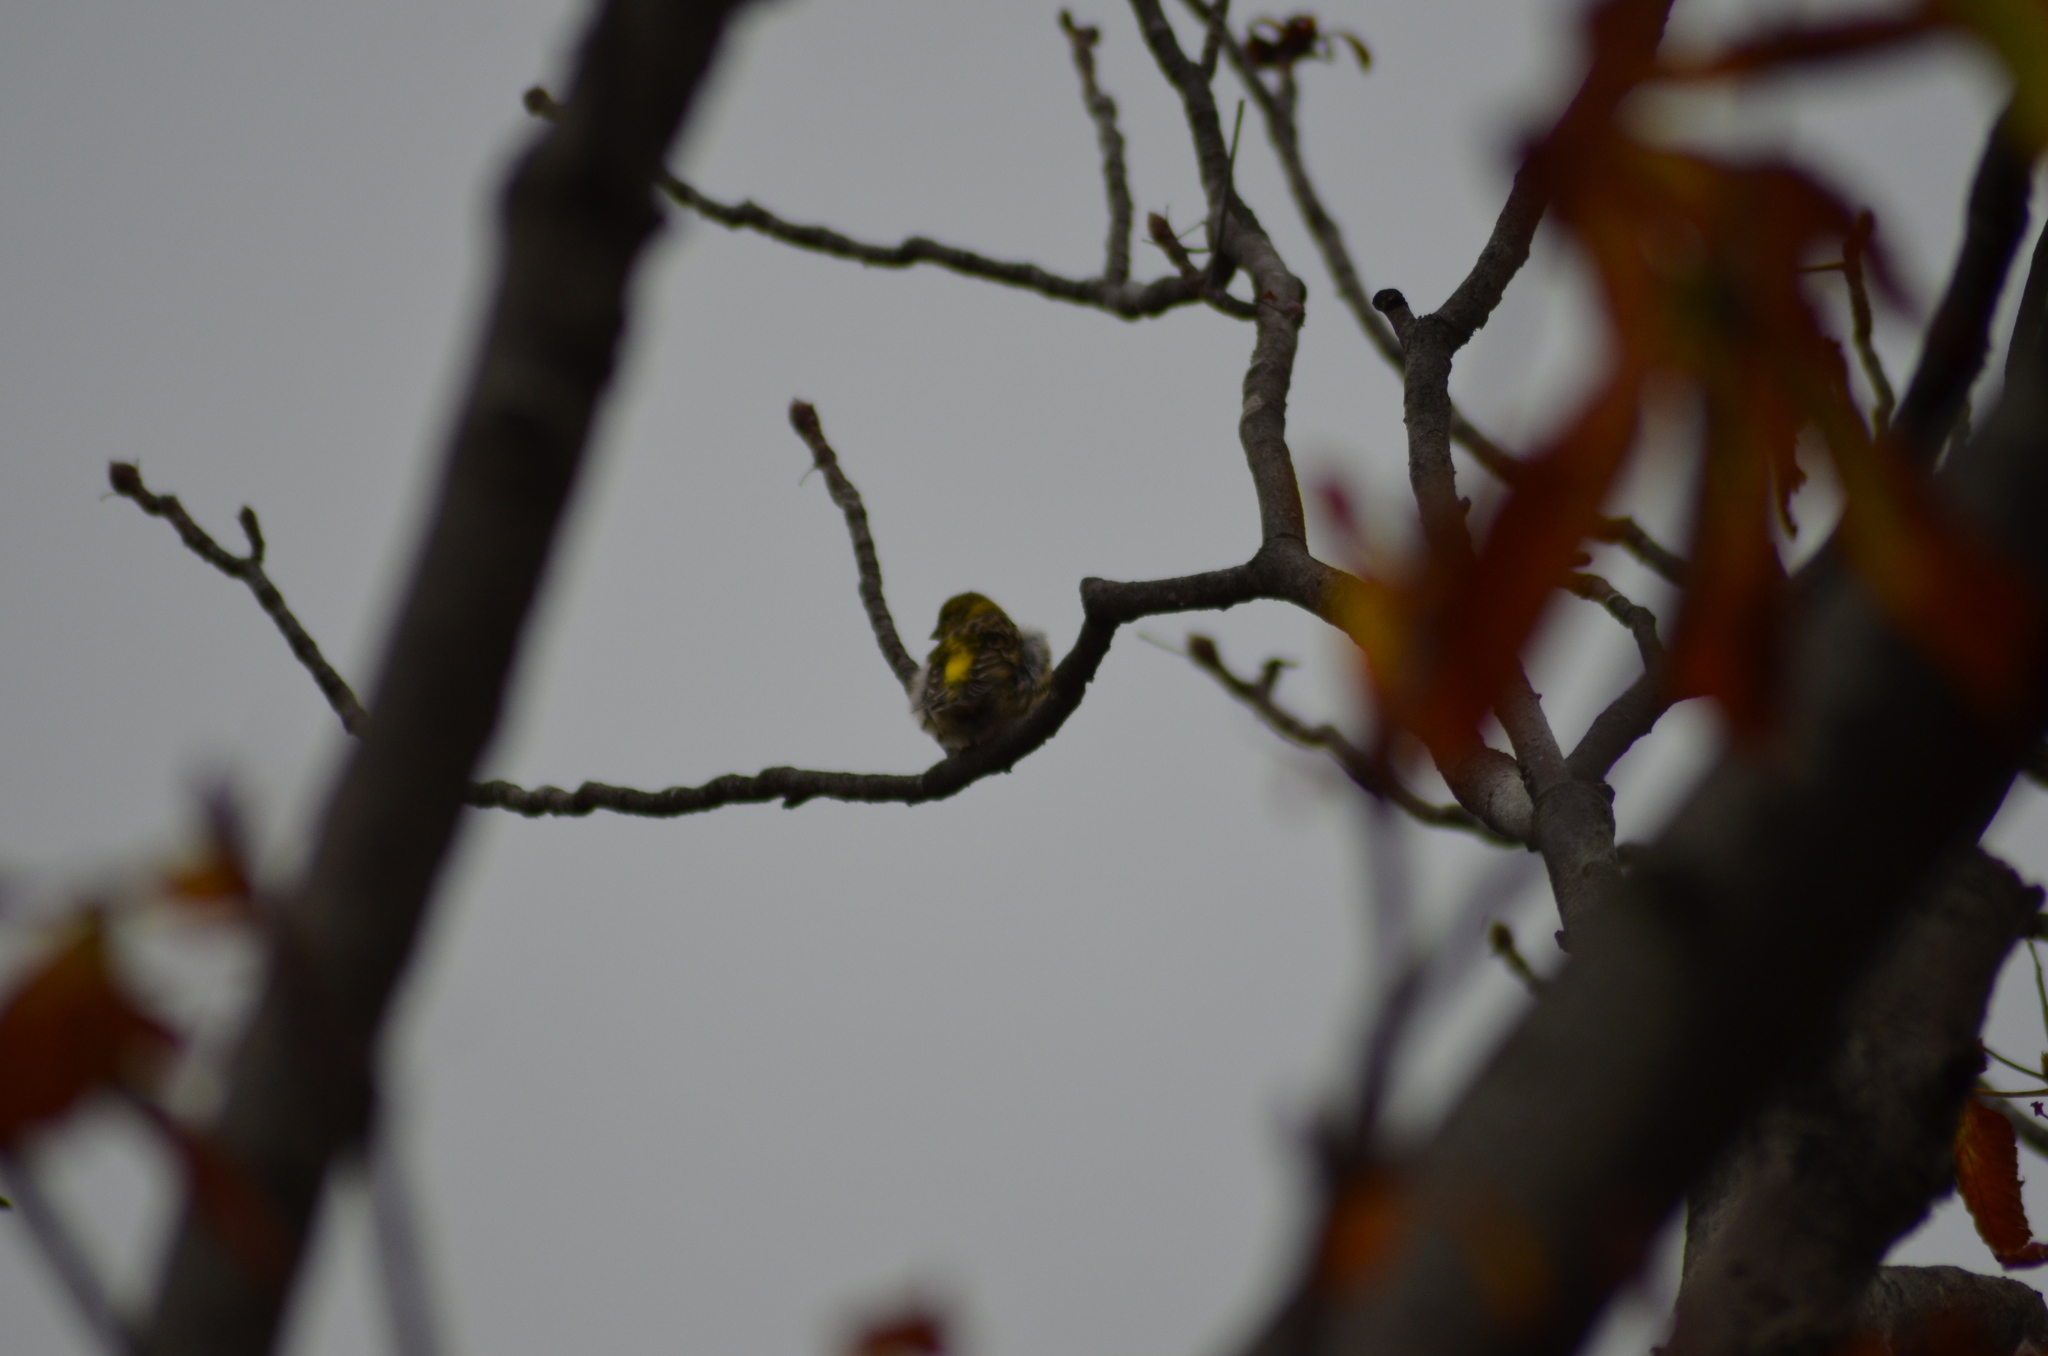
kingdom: Animalia
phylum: Chordata
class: Aves
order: Passeriformes
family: Fringillidae
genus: Serinus
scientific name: Serinus serinus
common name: European serin
